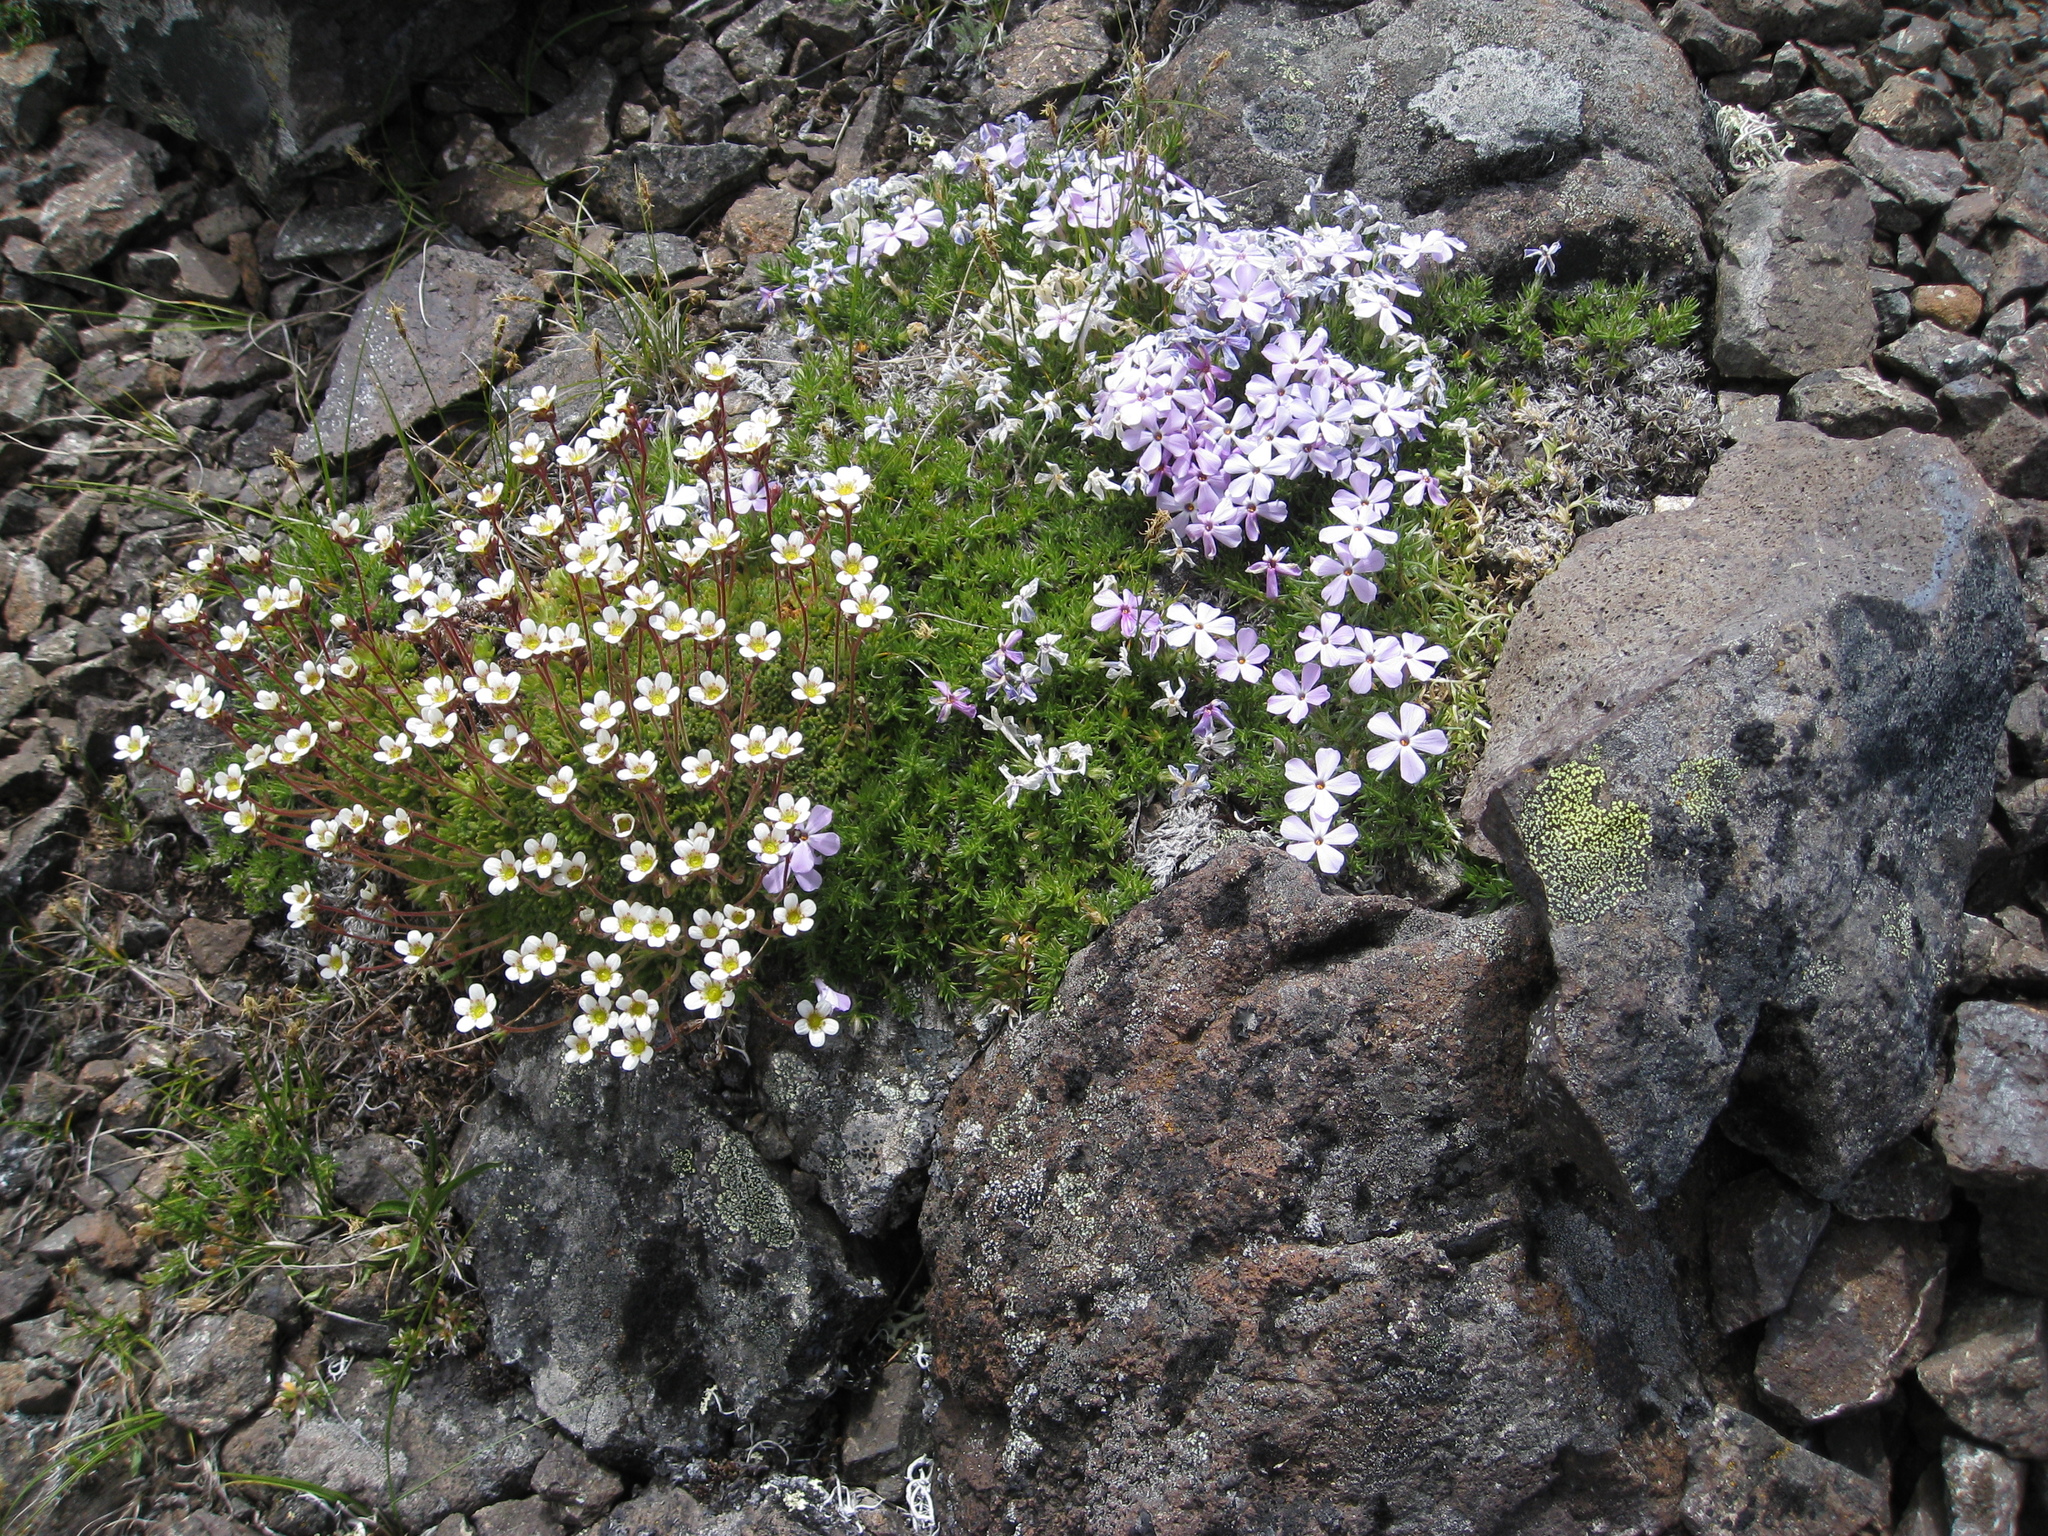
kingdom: Plantae
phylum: Tracheophyta
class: Magnoliopsida
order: Saxifragales
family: Saxifragaceae
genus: Saxifraga
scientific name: Saxifraga cespitosa
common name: Tufted saxifrage
